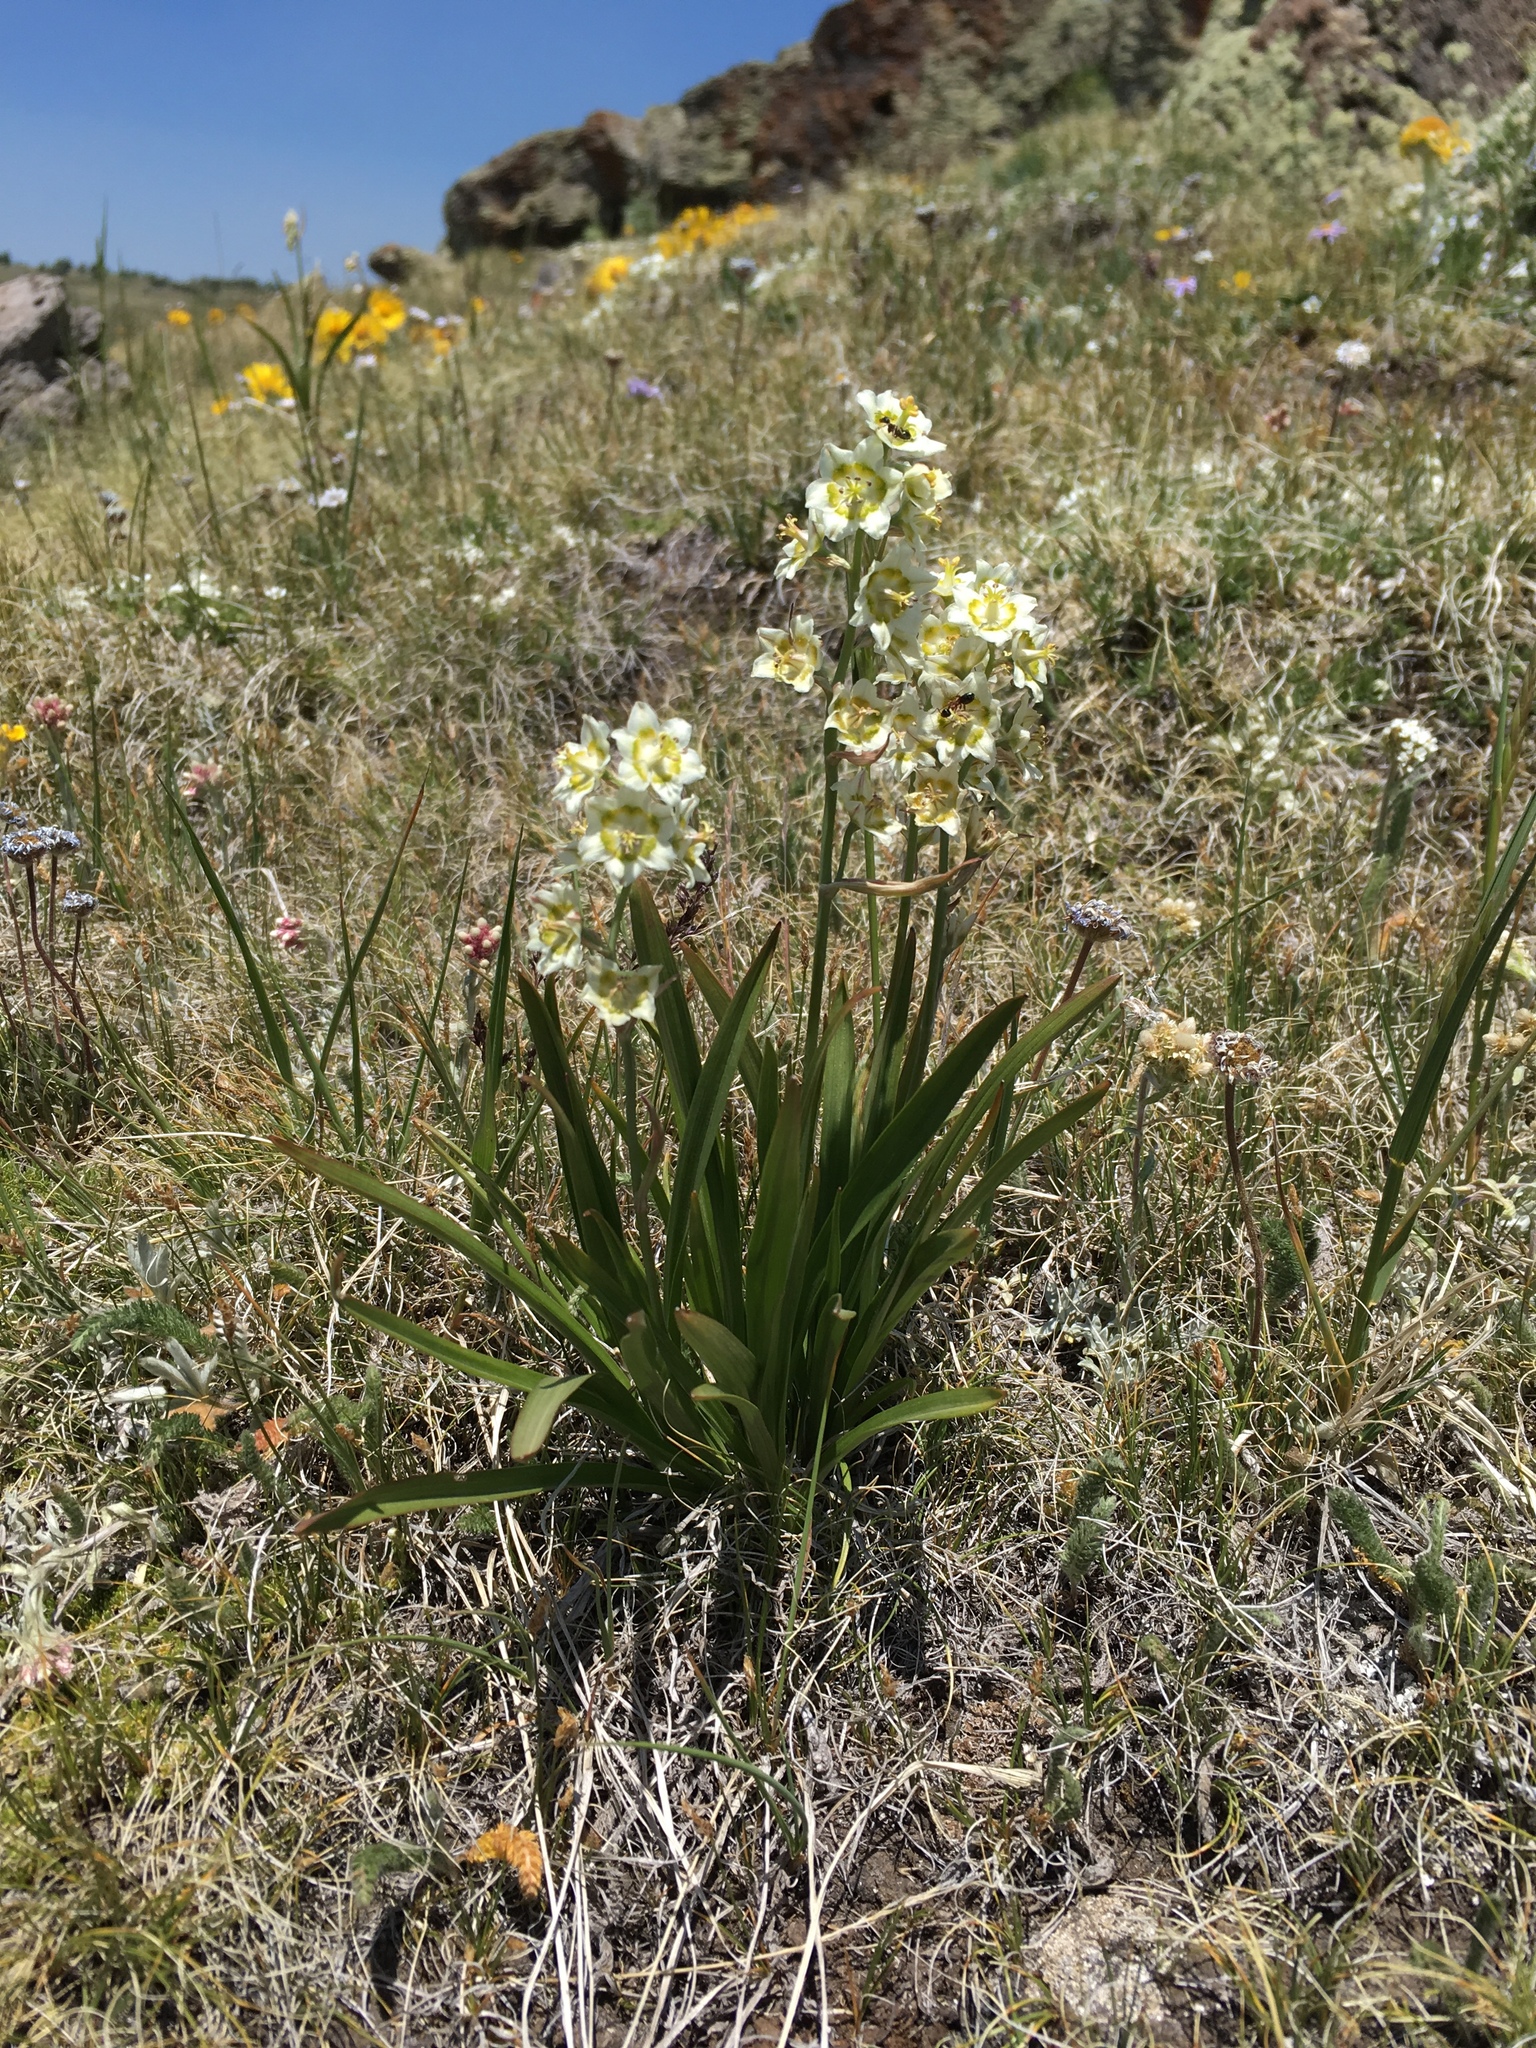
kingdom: Plantae
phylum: Tracheophyta
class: Liliopsida
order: Liliales
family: Melanthiaceae
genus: Anticlea
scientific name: Anticlea elegans
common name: Mountain death camas
